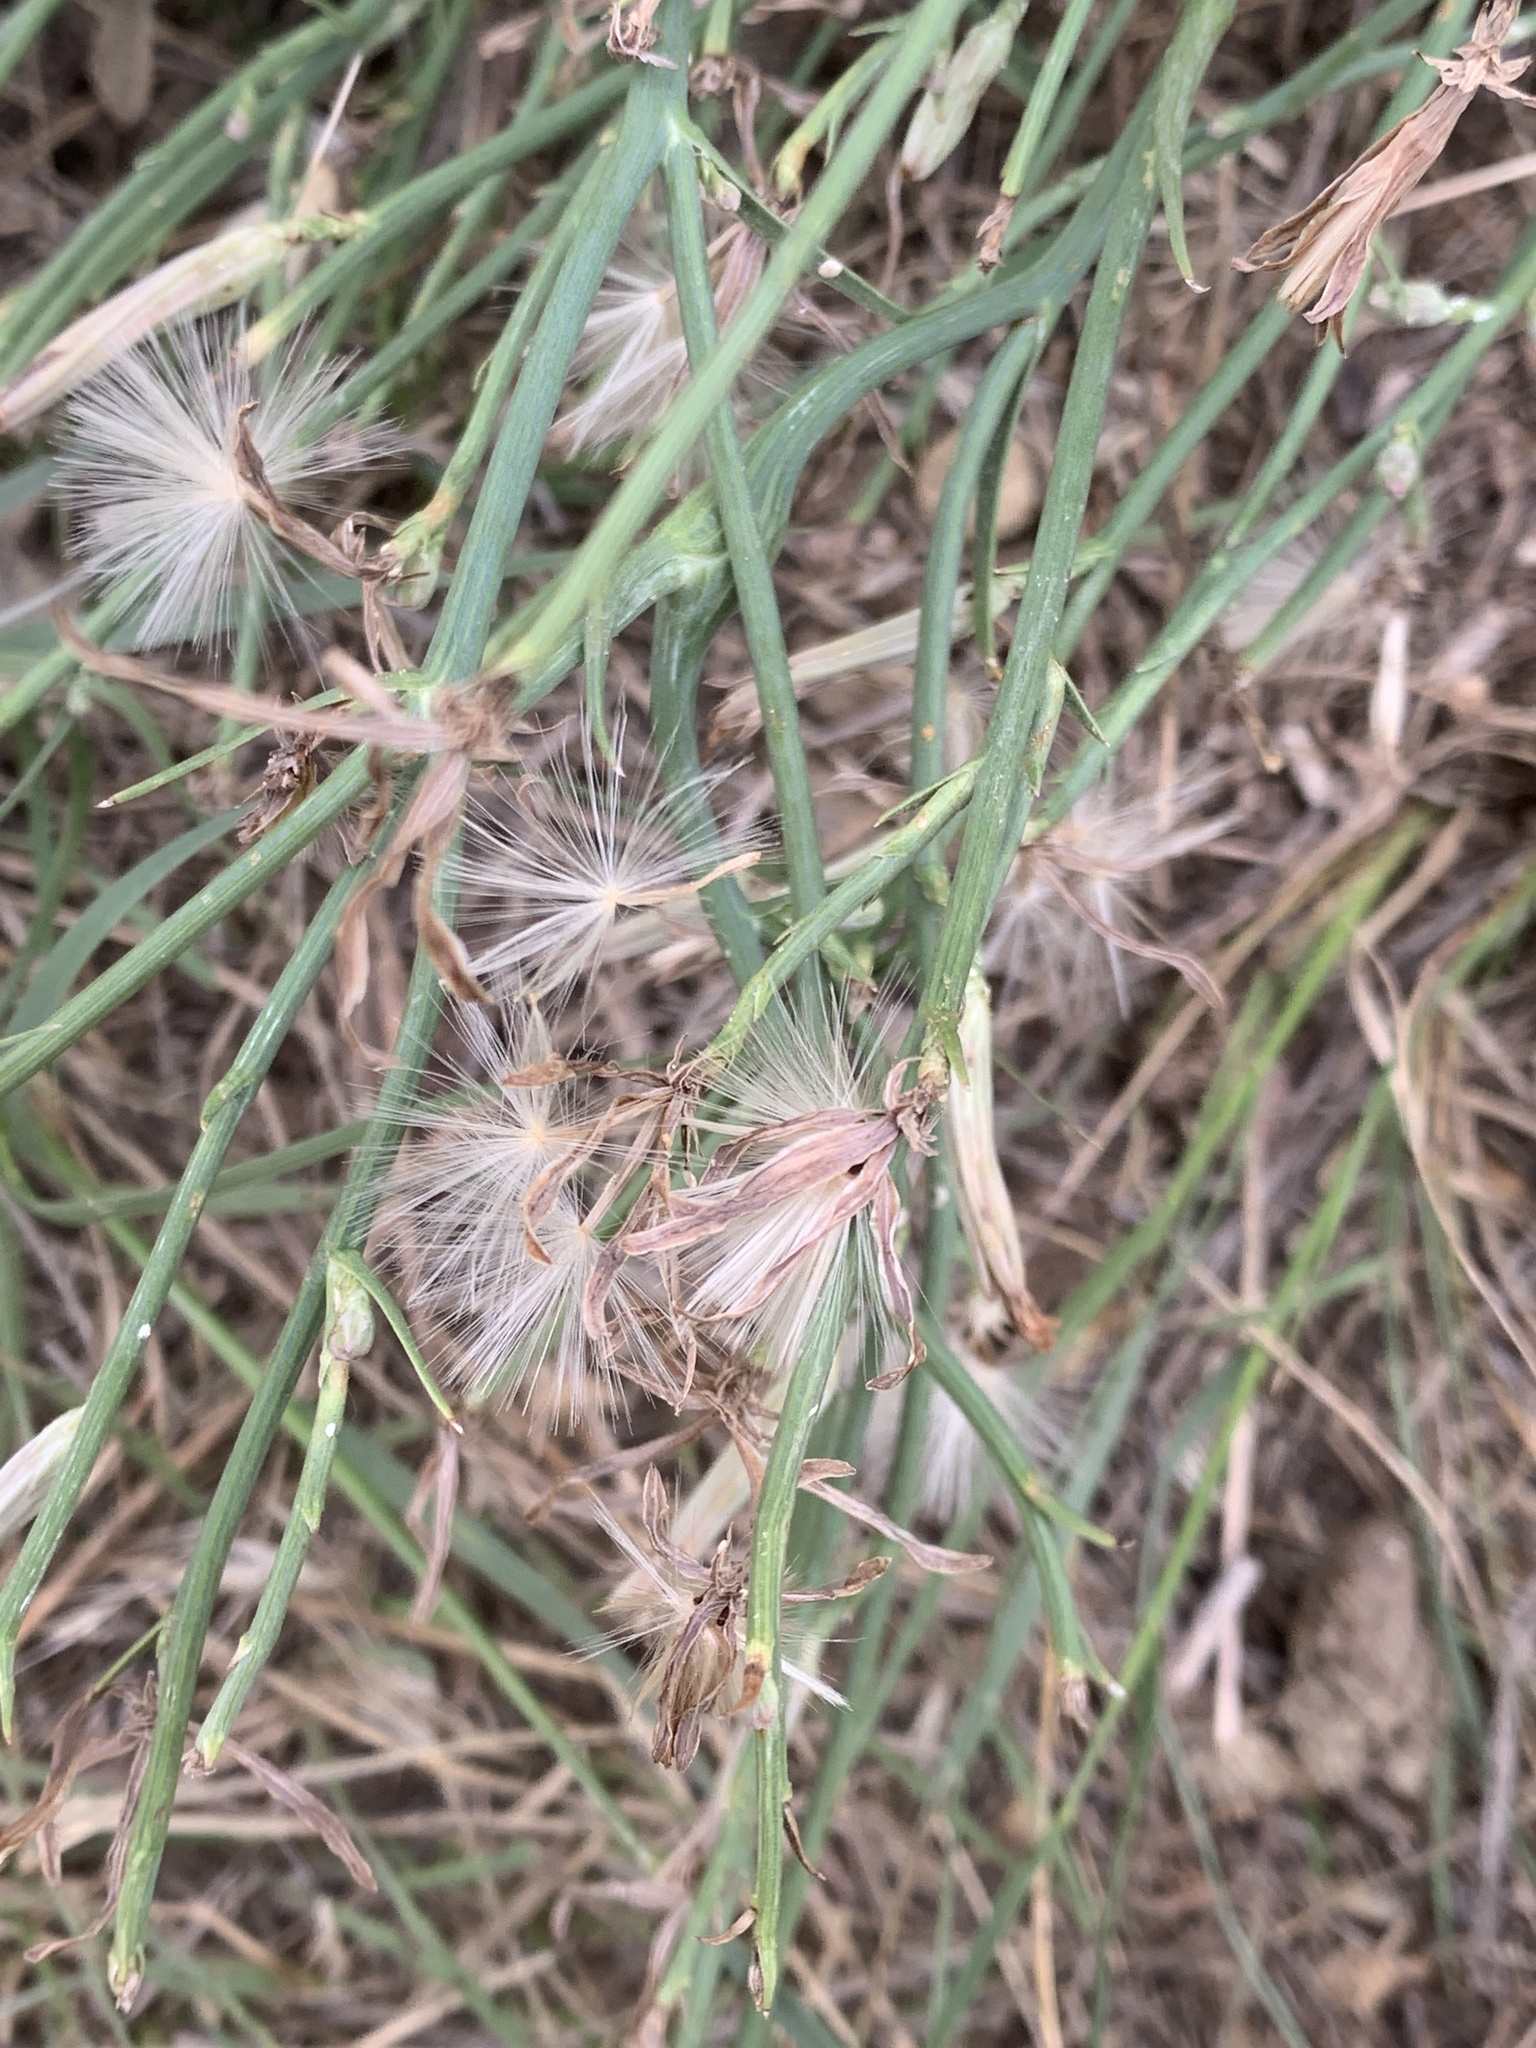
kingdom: Plantae
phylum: Tracheophyta
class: Magnoliopsida
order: Asterales
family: Asteraceae
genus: Lygodesmia
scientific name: Lygodesmia juncea
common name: Common skeletonweed
